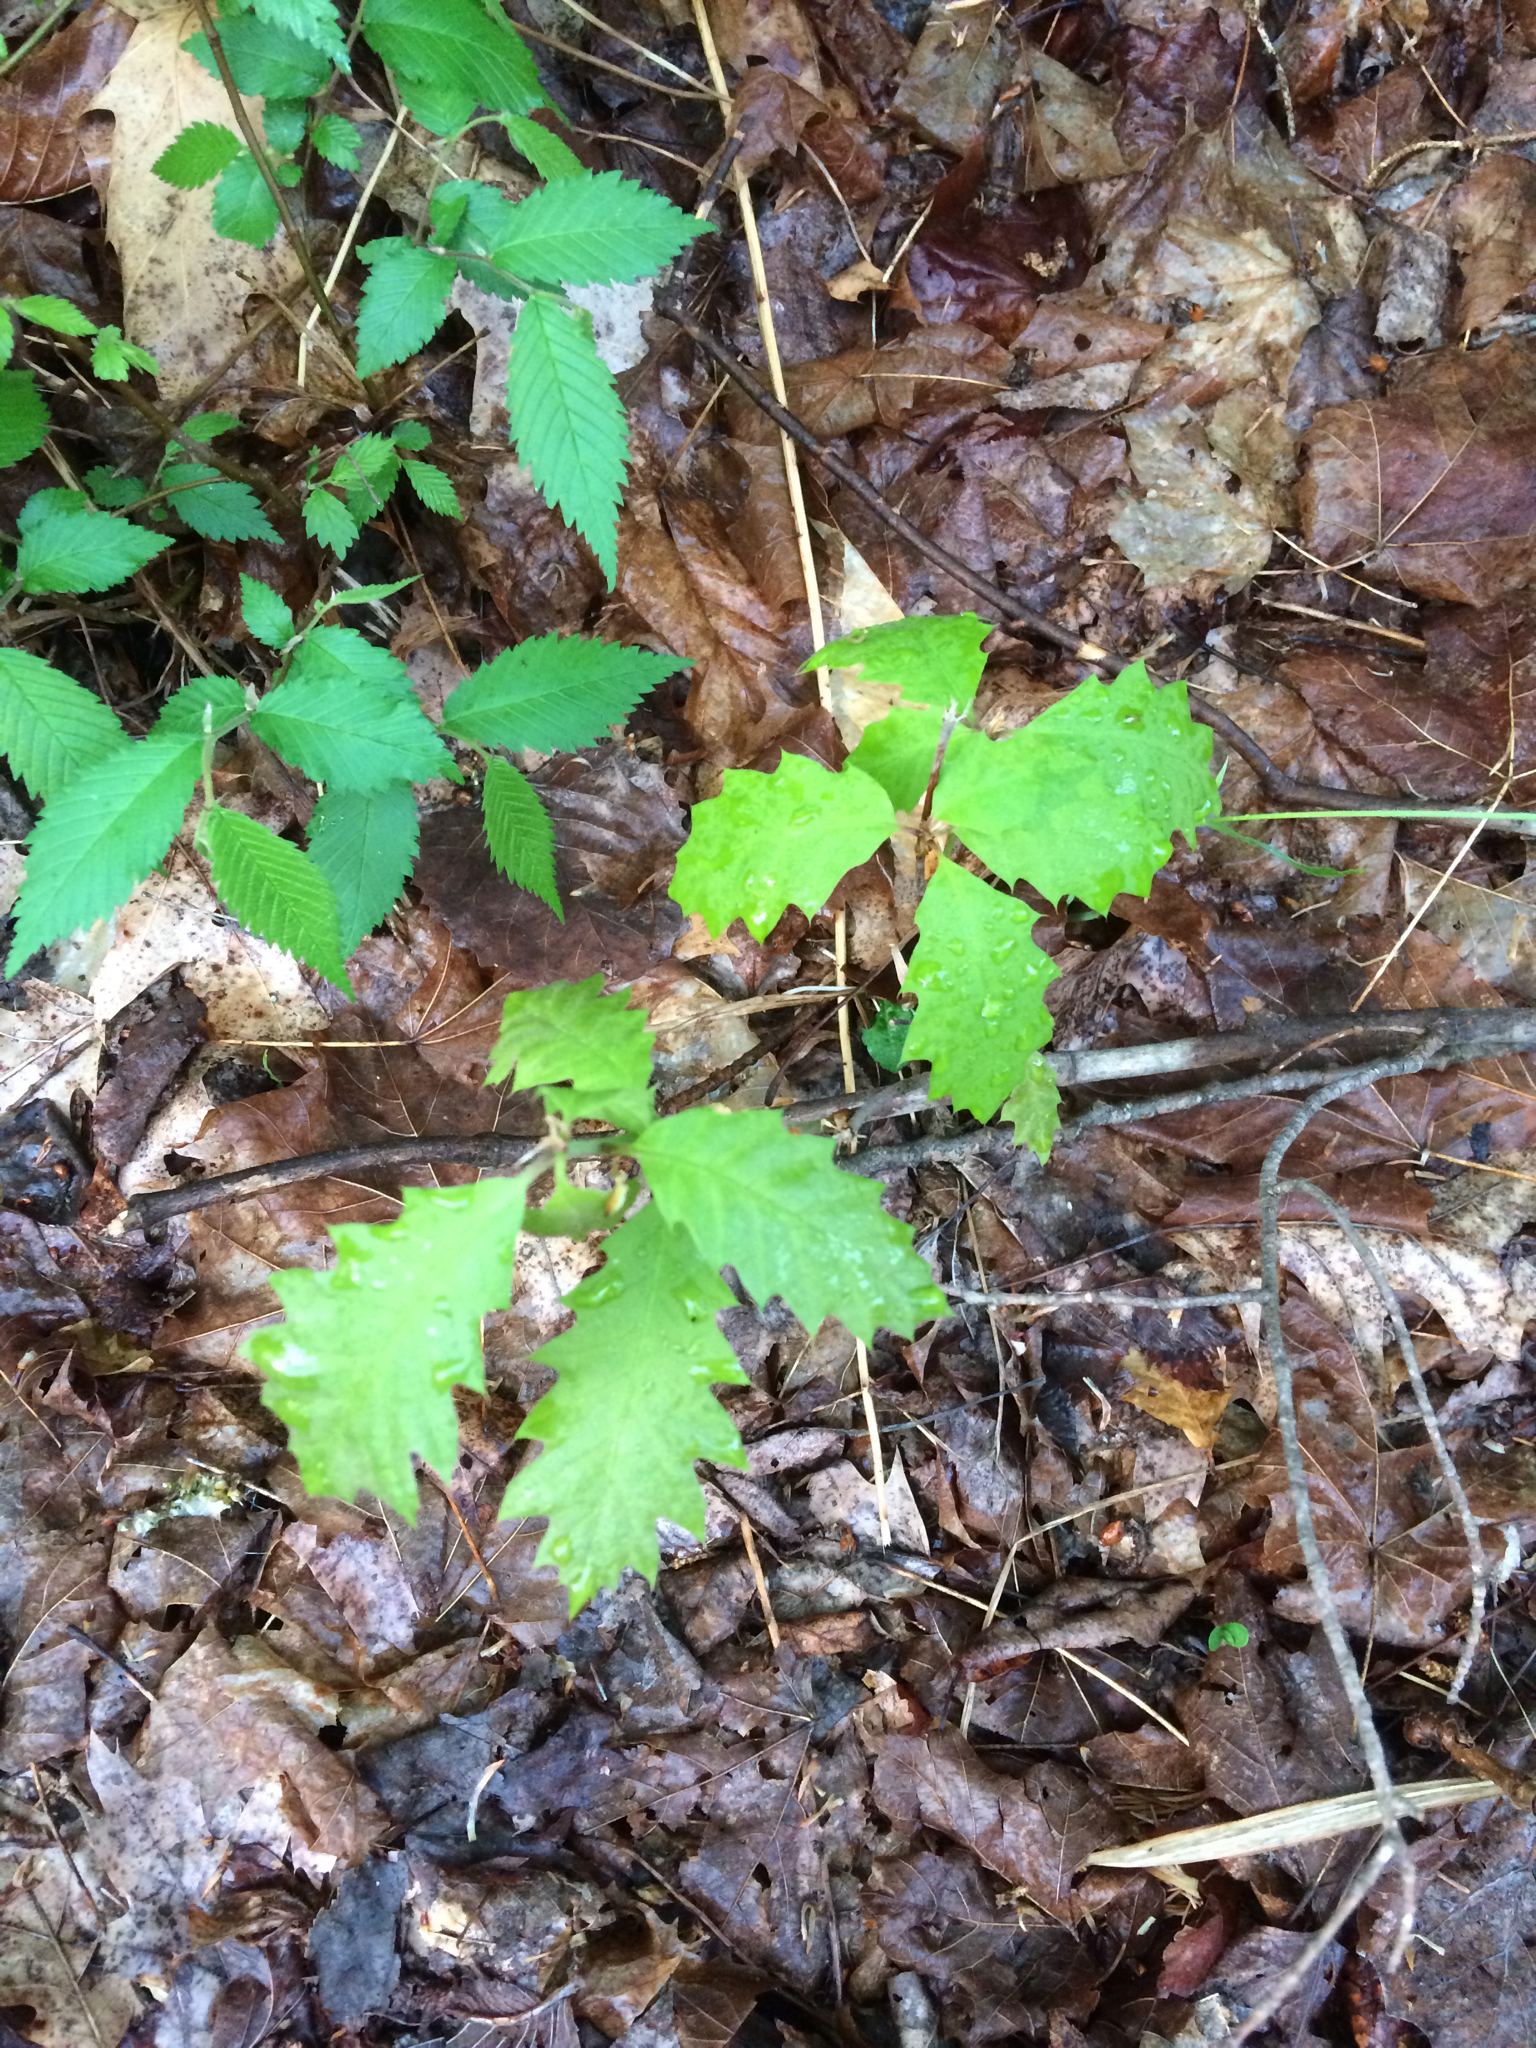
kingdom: Plantae
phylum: Tracheophyta
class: Magnoliopsida
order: Fagales
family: Fagaceae
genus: Quercus
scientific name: Quercus rubra
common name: Red oak
